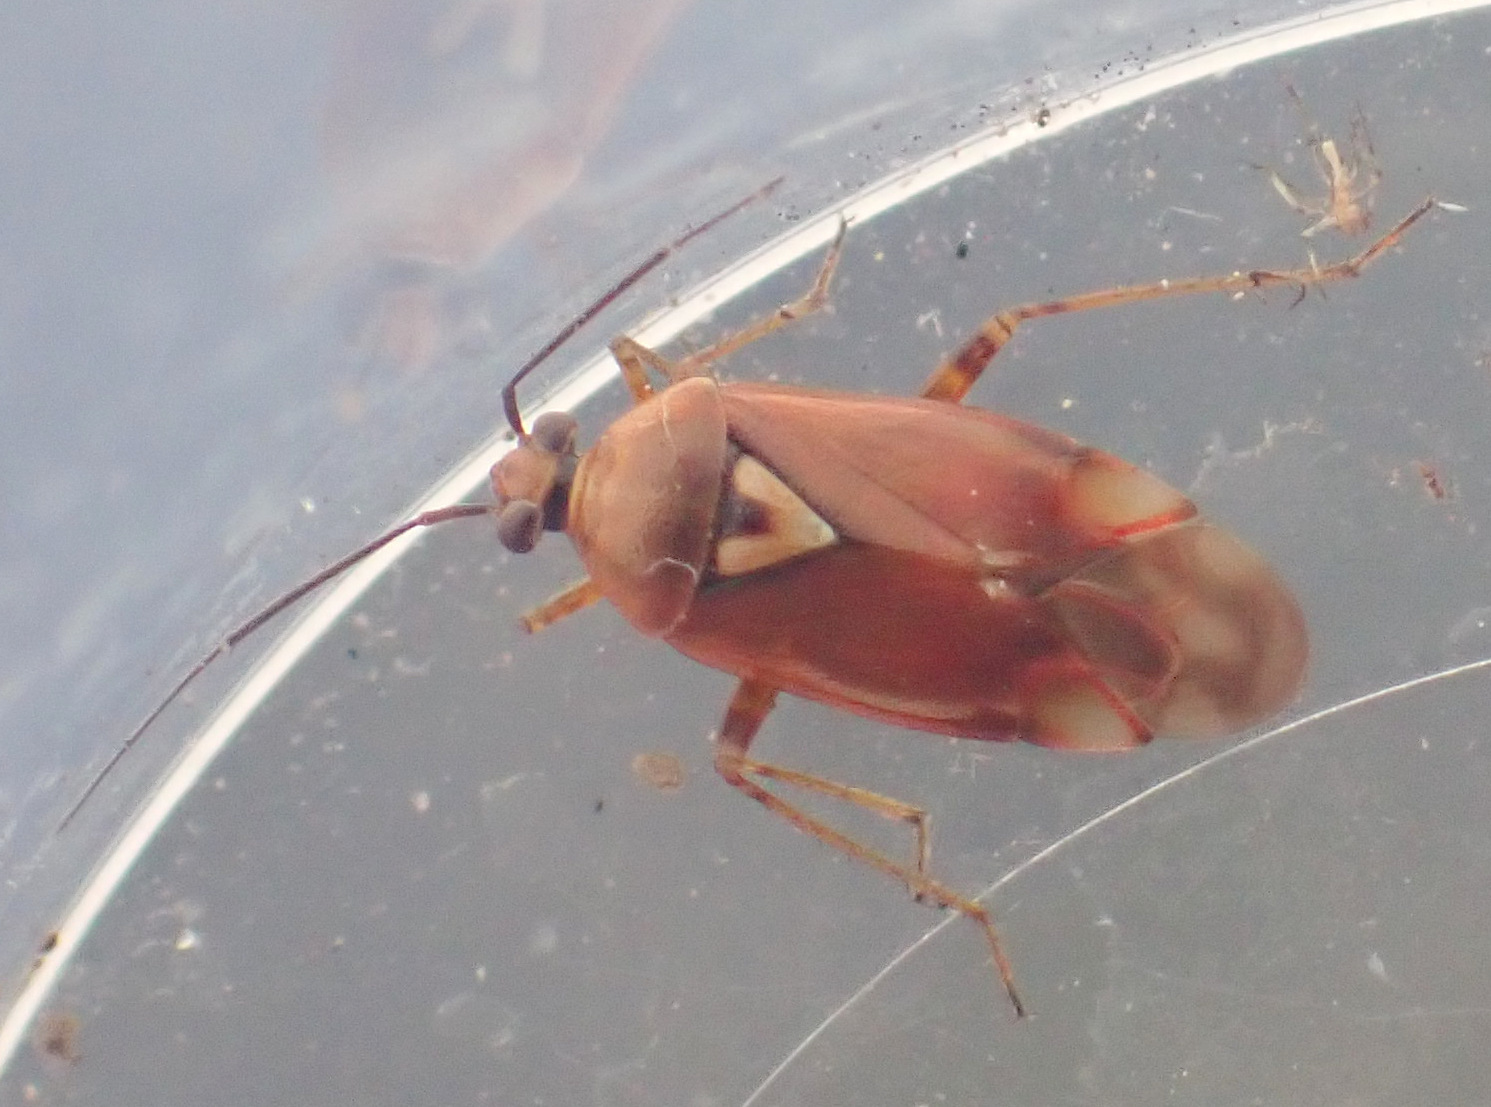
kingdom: Animalia
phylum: Arthropoda
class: Insecta
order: Hemiptera
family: Miridae
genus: Lygus
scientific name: Lygus pratensis
